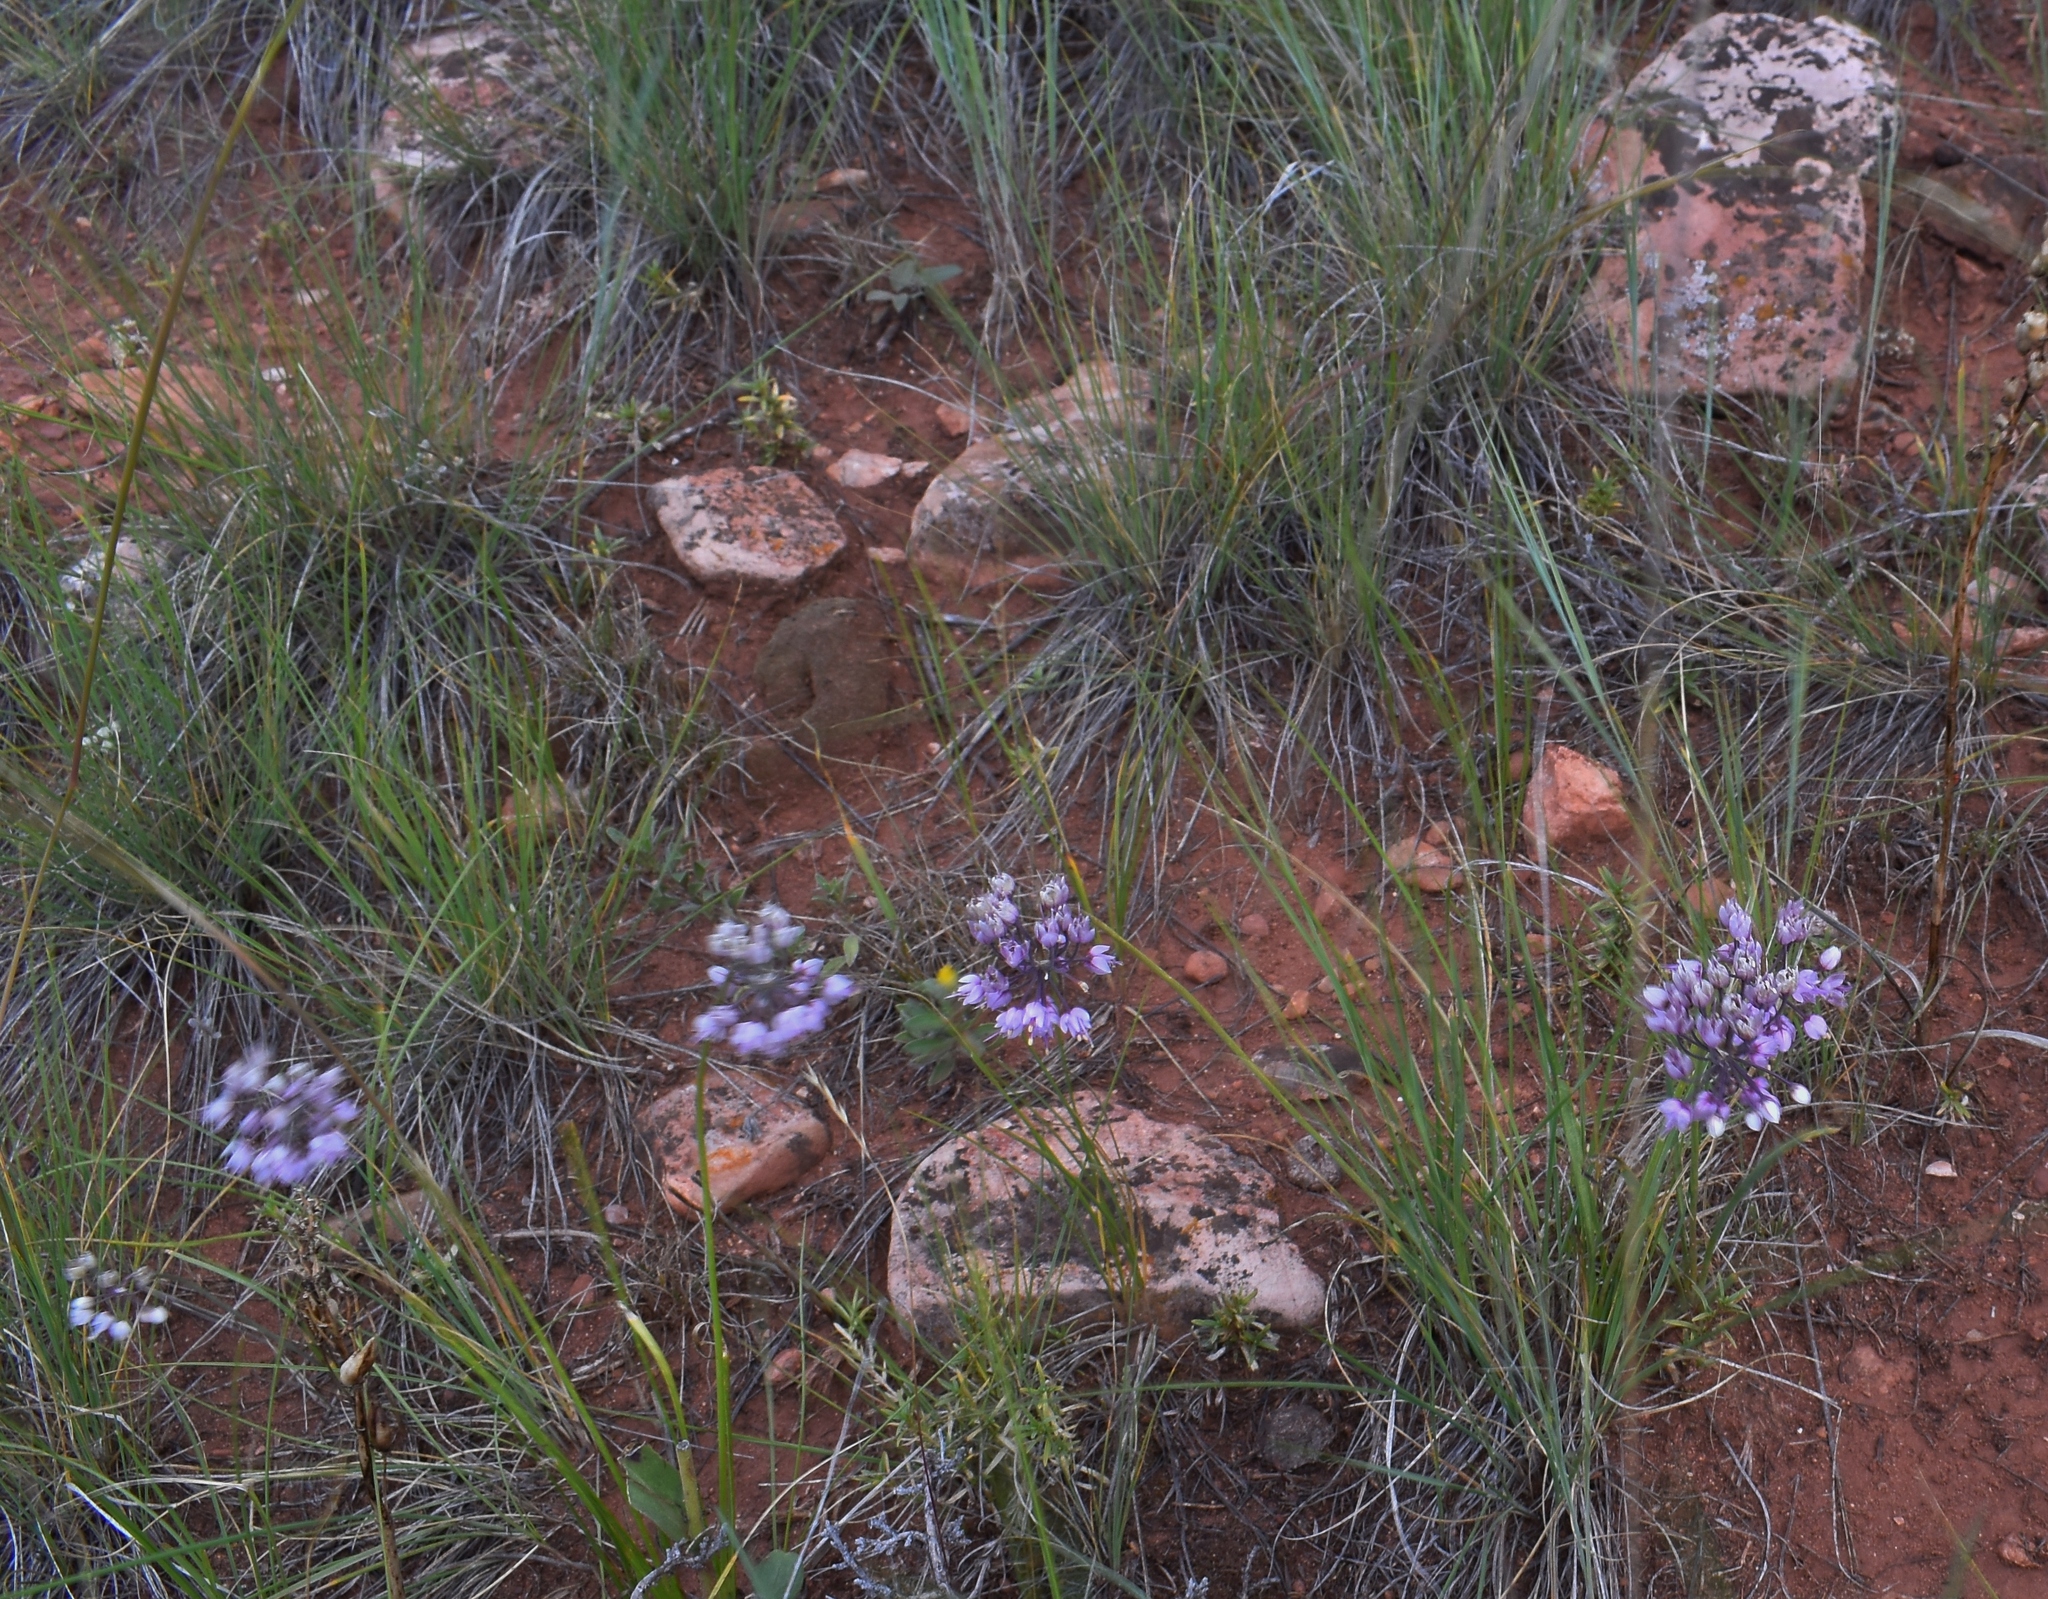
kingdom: Plantae
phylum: Tracheophyta
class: Liliopsida
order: Asparagales
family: Amaryllidaceae
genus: Allium
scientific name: Allium cernuum
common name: Nodding onion
